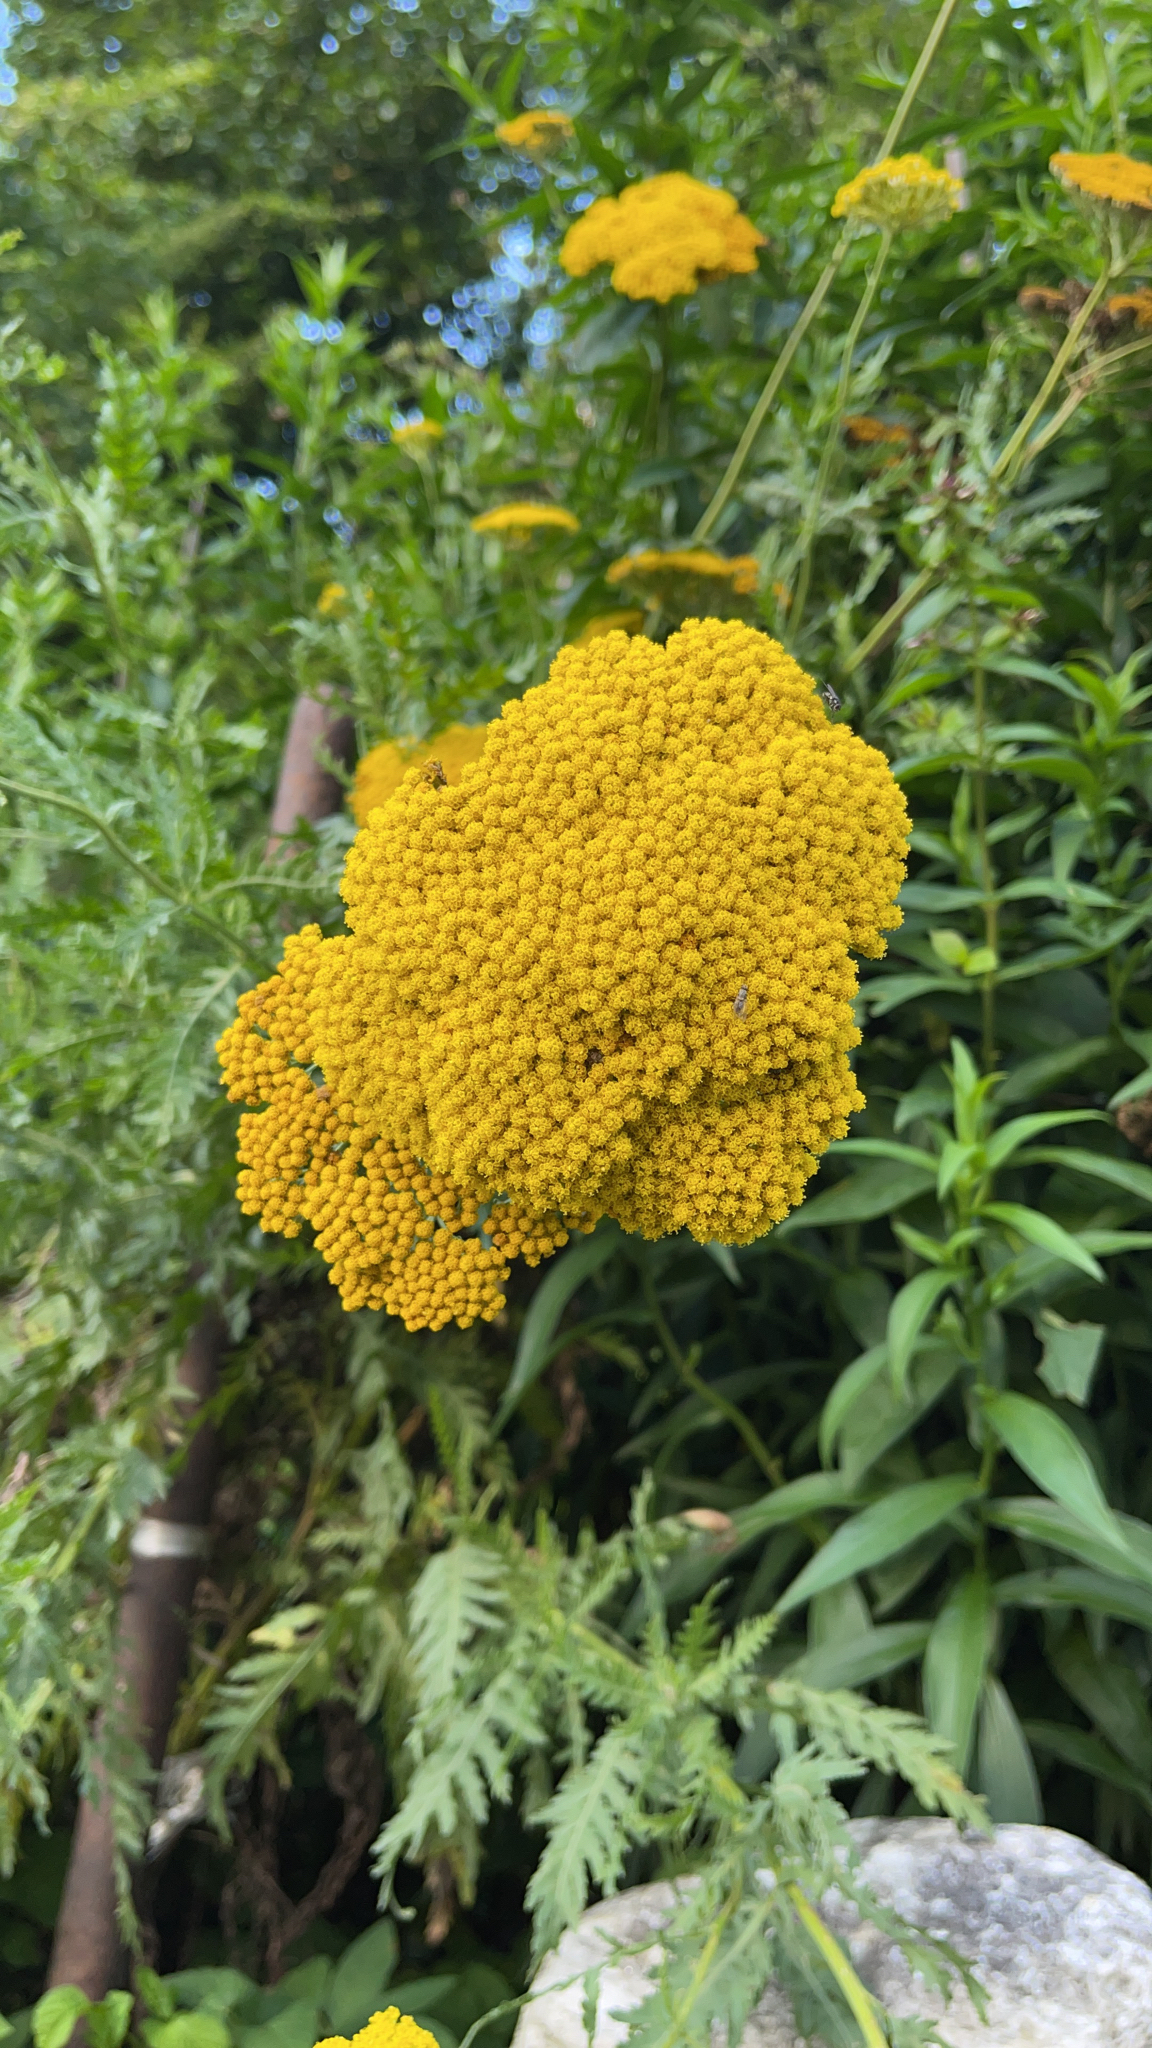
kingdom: Plantae
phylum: Tracheophyta
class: Magnoliopsida
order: Asterales
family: Asteraceae
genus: Achillea
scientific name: Achillea filipendulina
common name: Fernleaf yarrow
